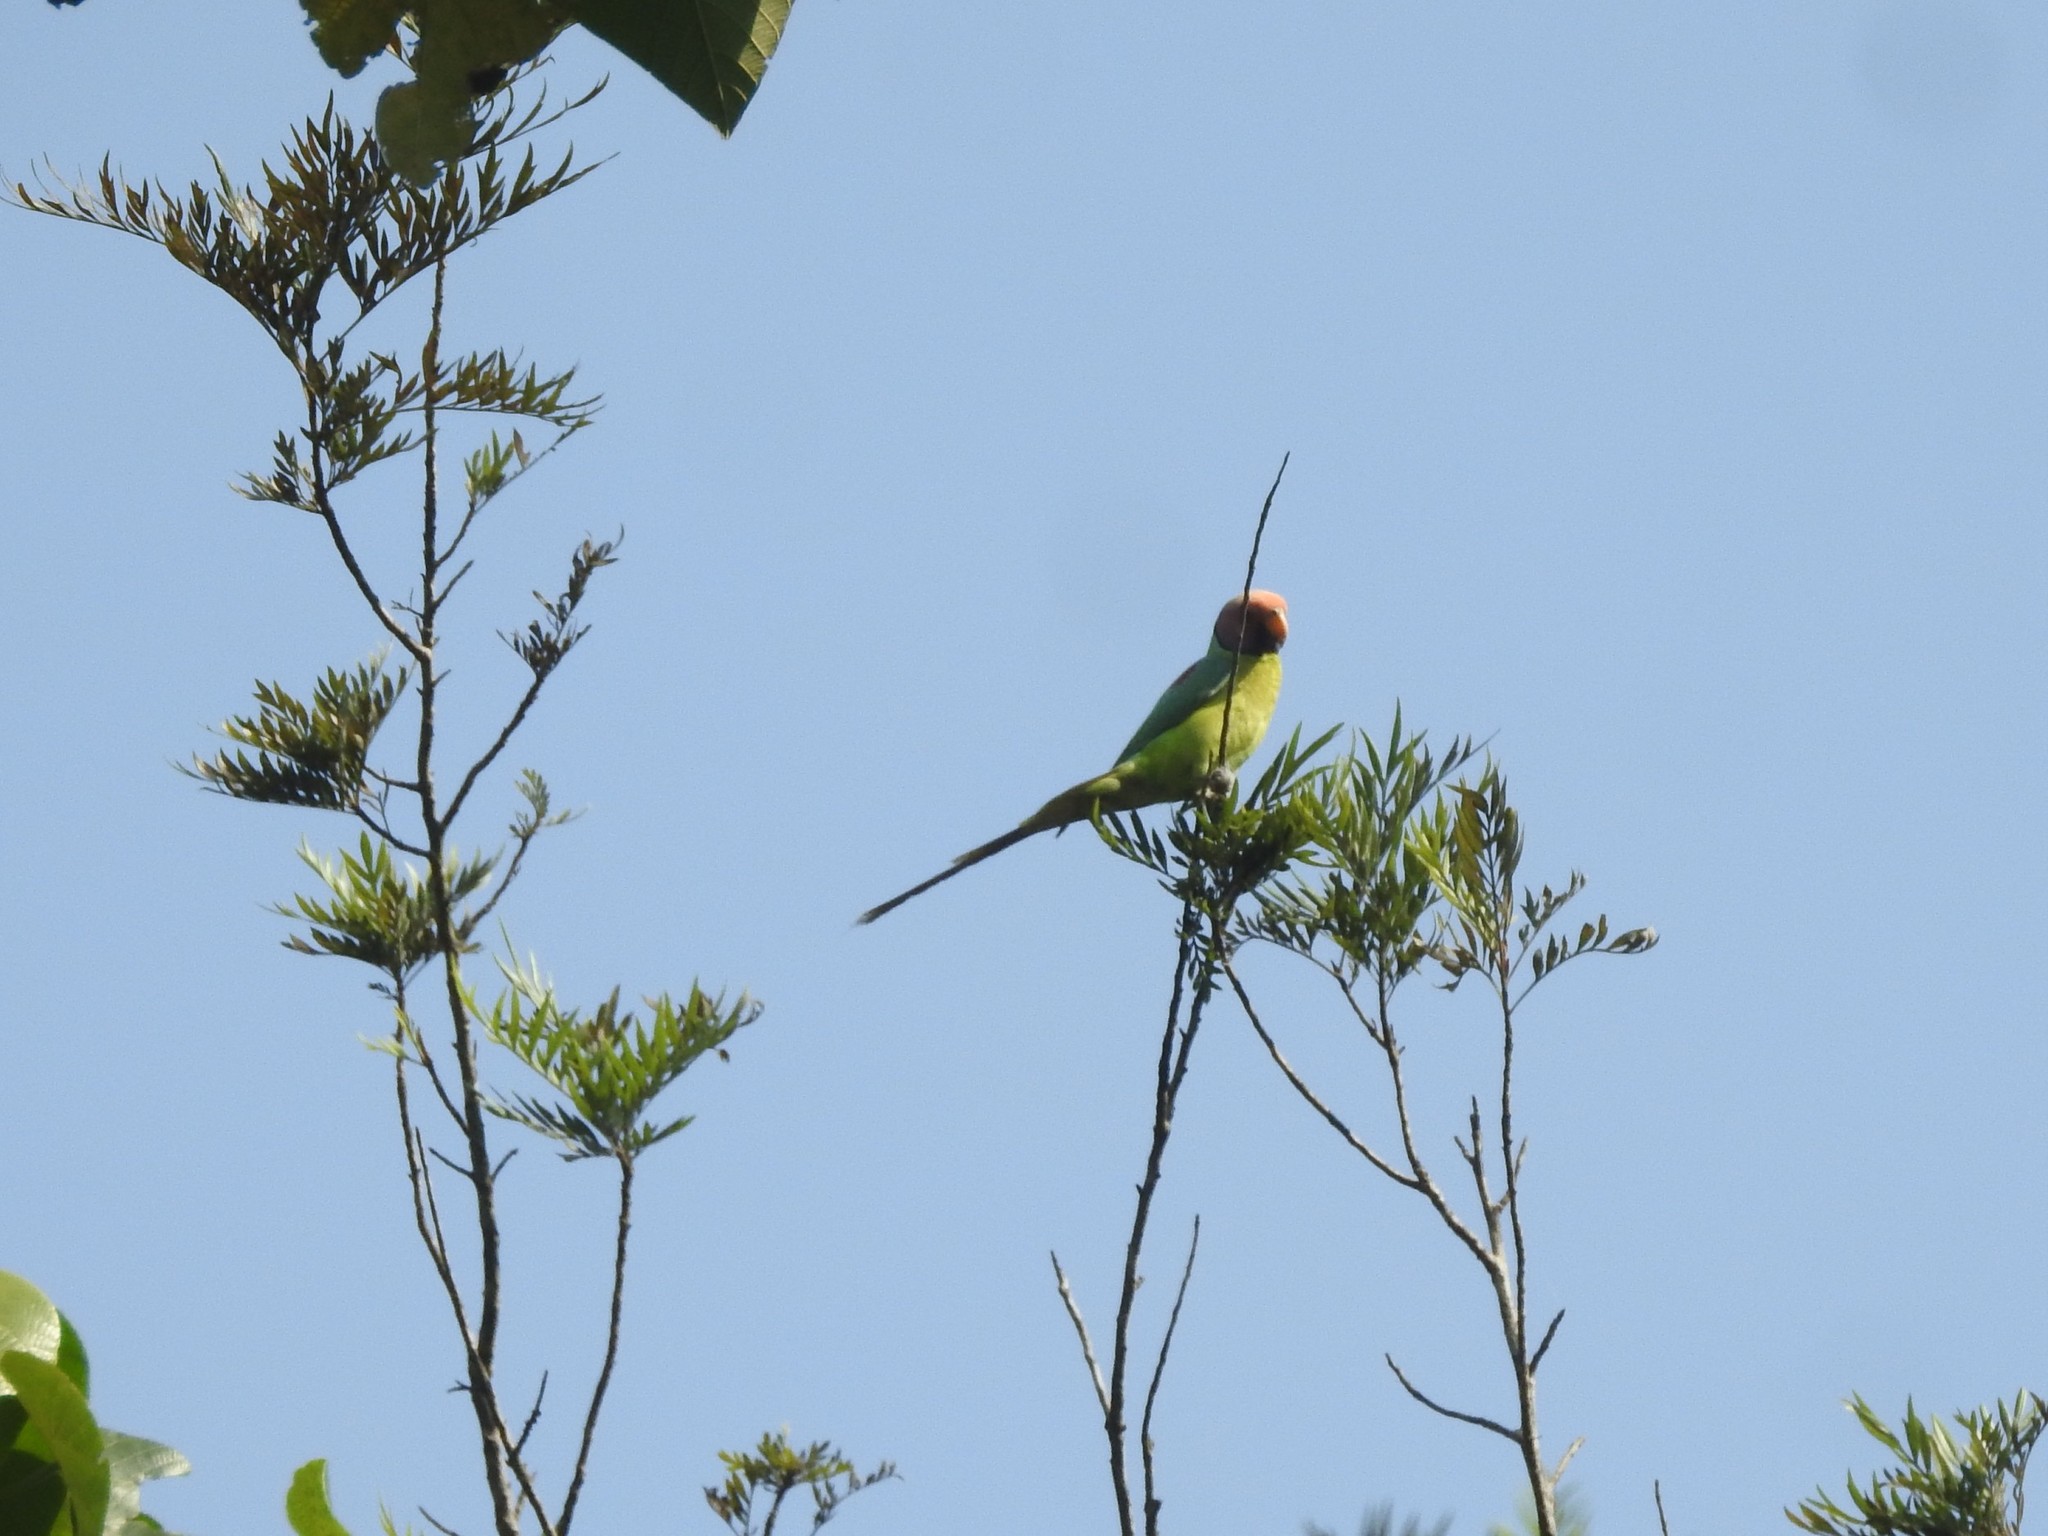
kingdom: Animalia
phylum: Chordata
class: Aves
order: Psittaciformes
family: Psittacidae
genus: Psittacula
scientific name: Psittacula cyanocephala
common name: Plum-headed parakeet
